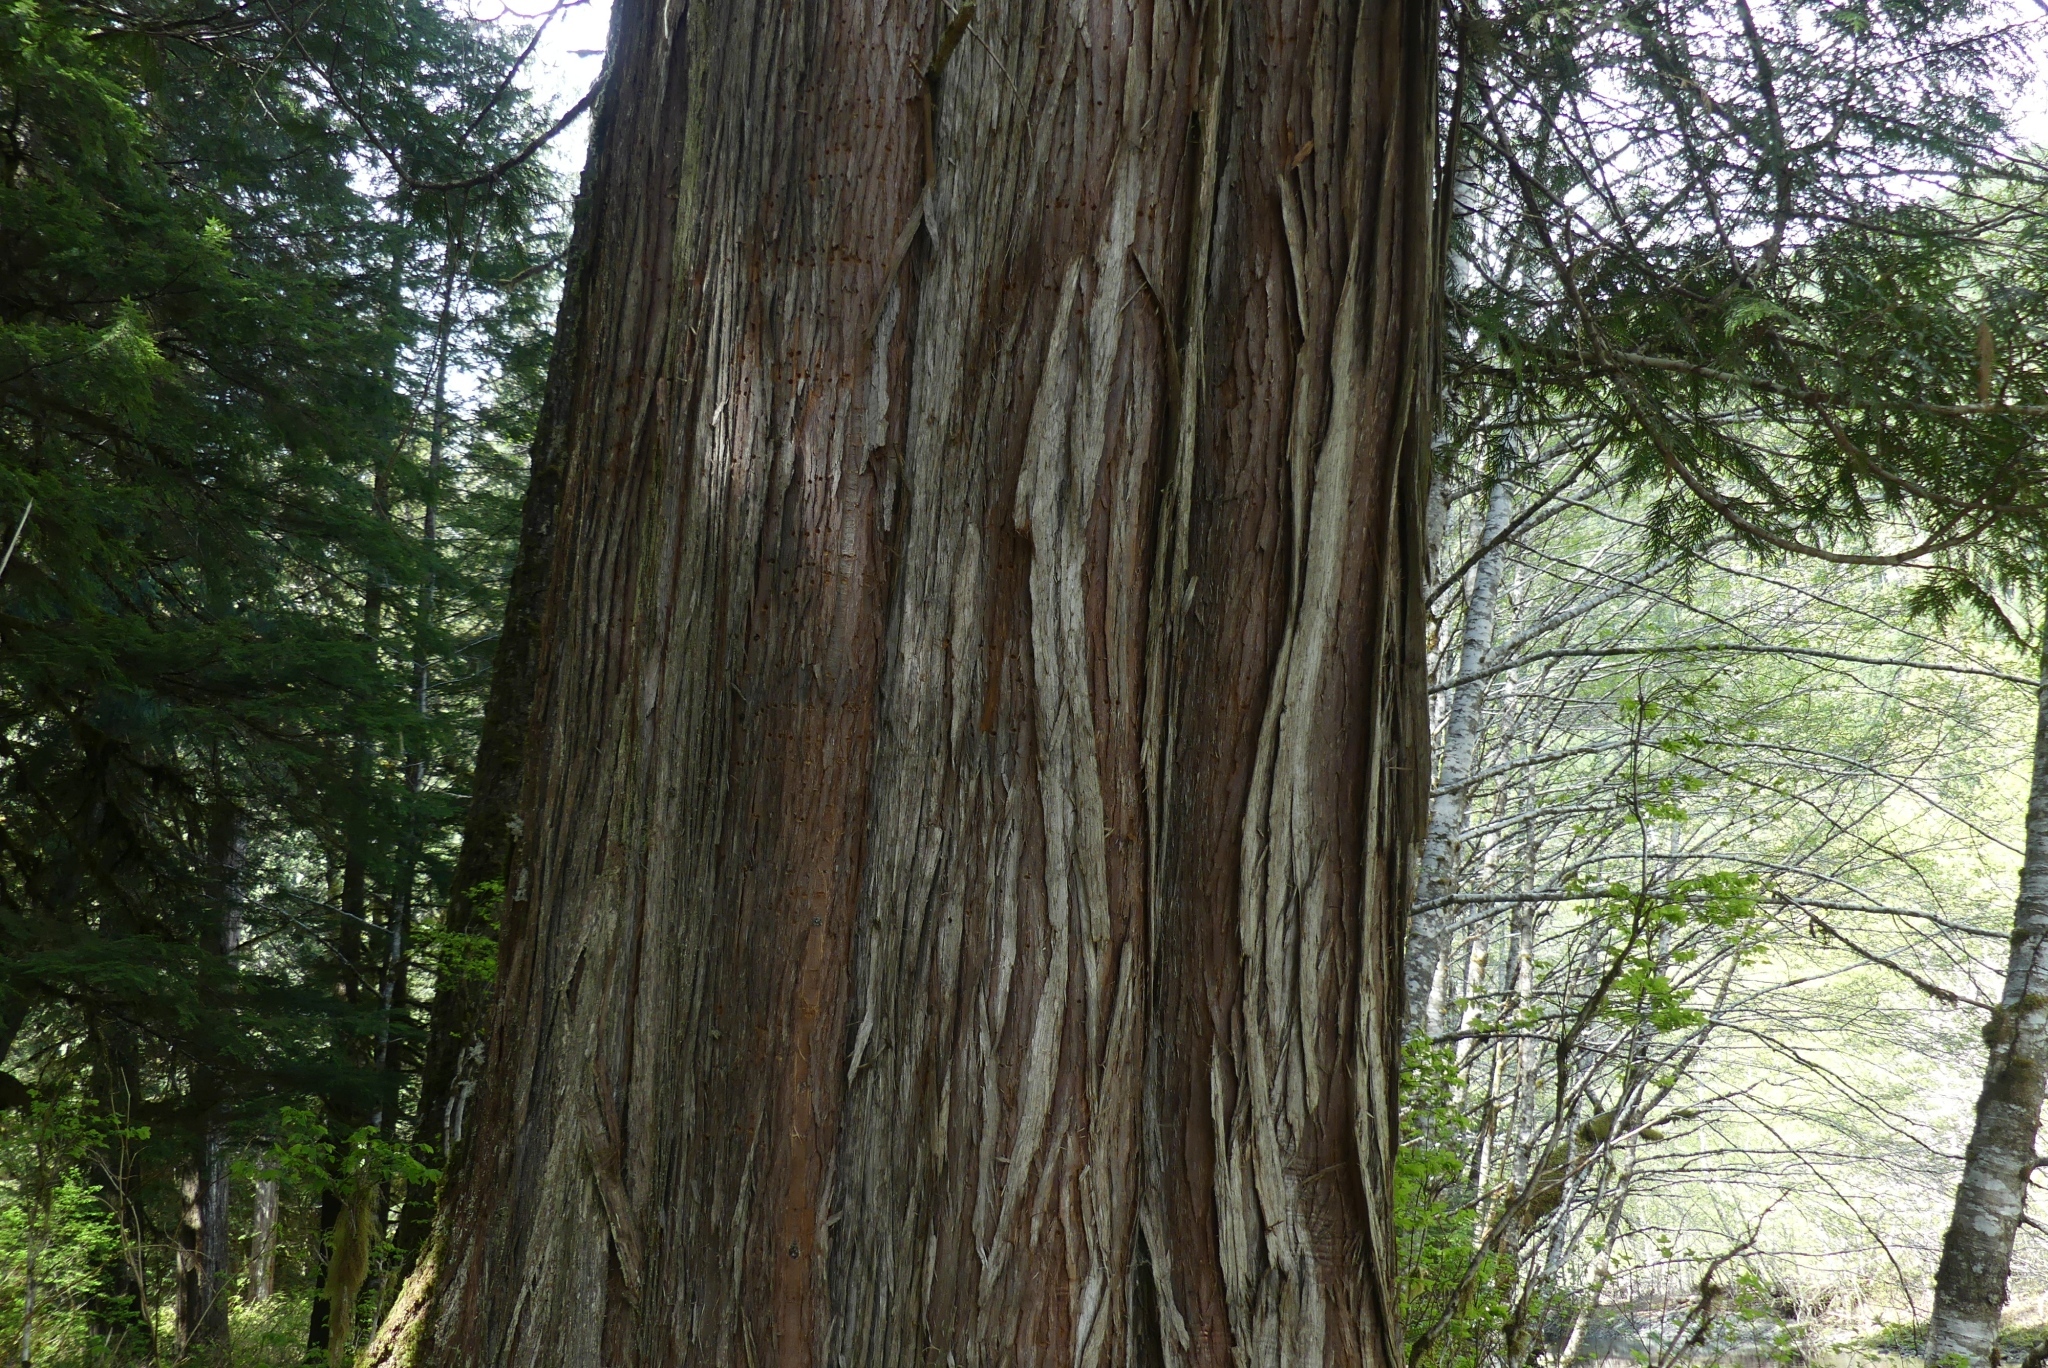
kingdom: Plantae
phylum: Tracheophyta
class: Pinopsida
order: Pinales
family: Cupressaceae
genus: Thuja
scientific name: Thuja plicata
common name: Western red-cedar
